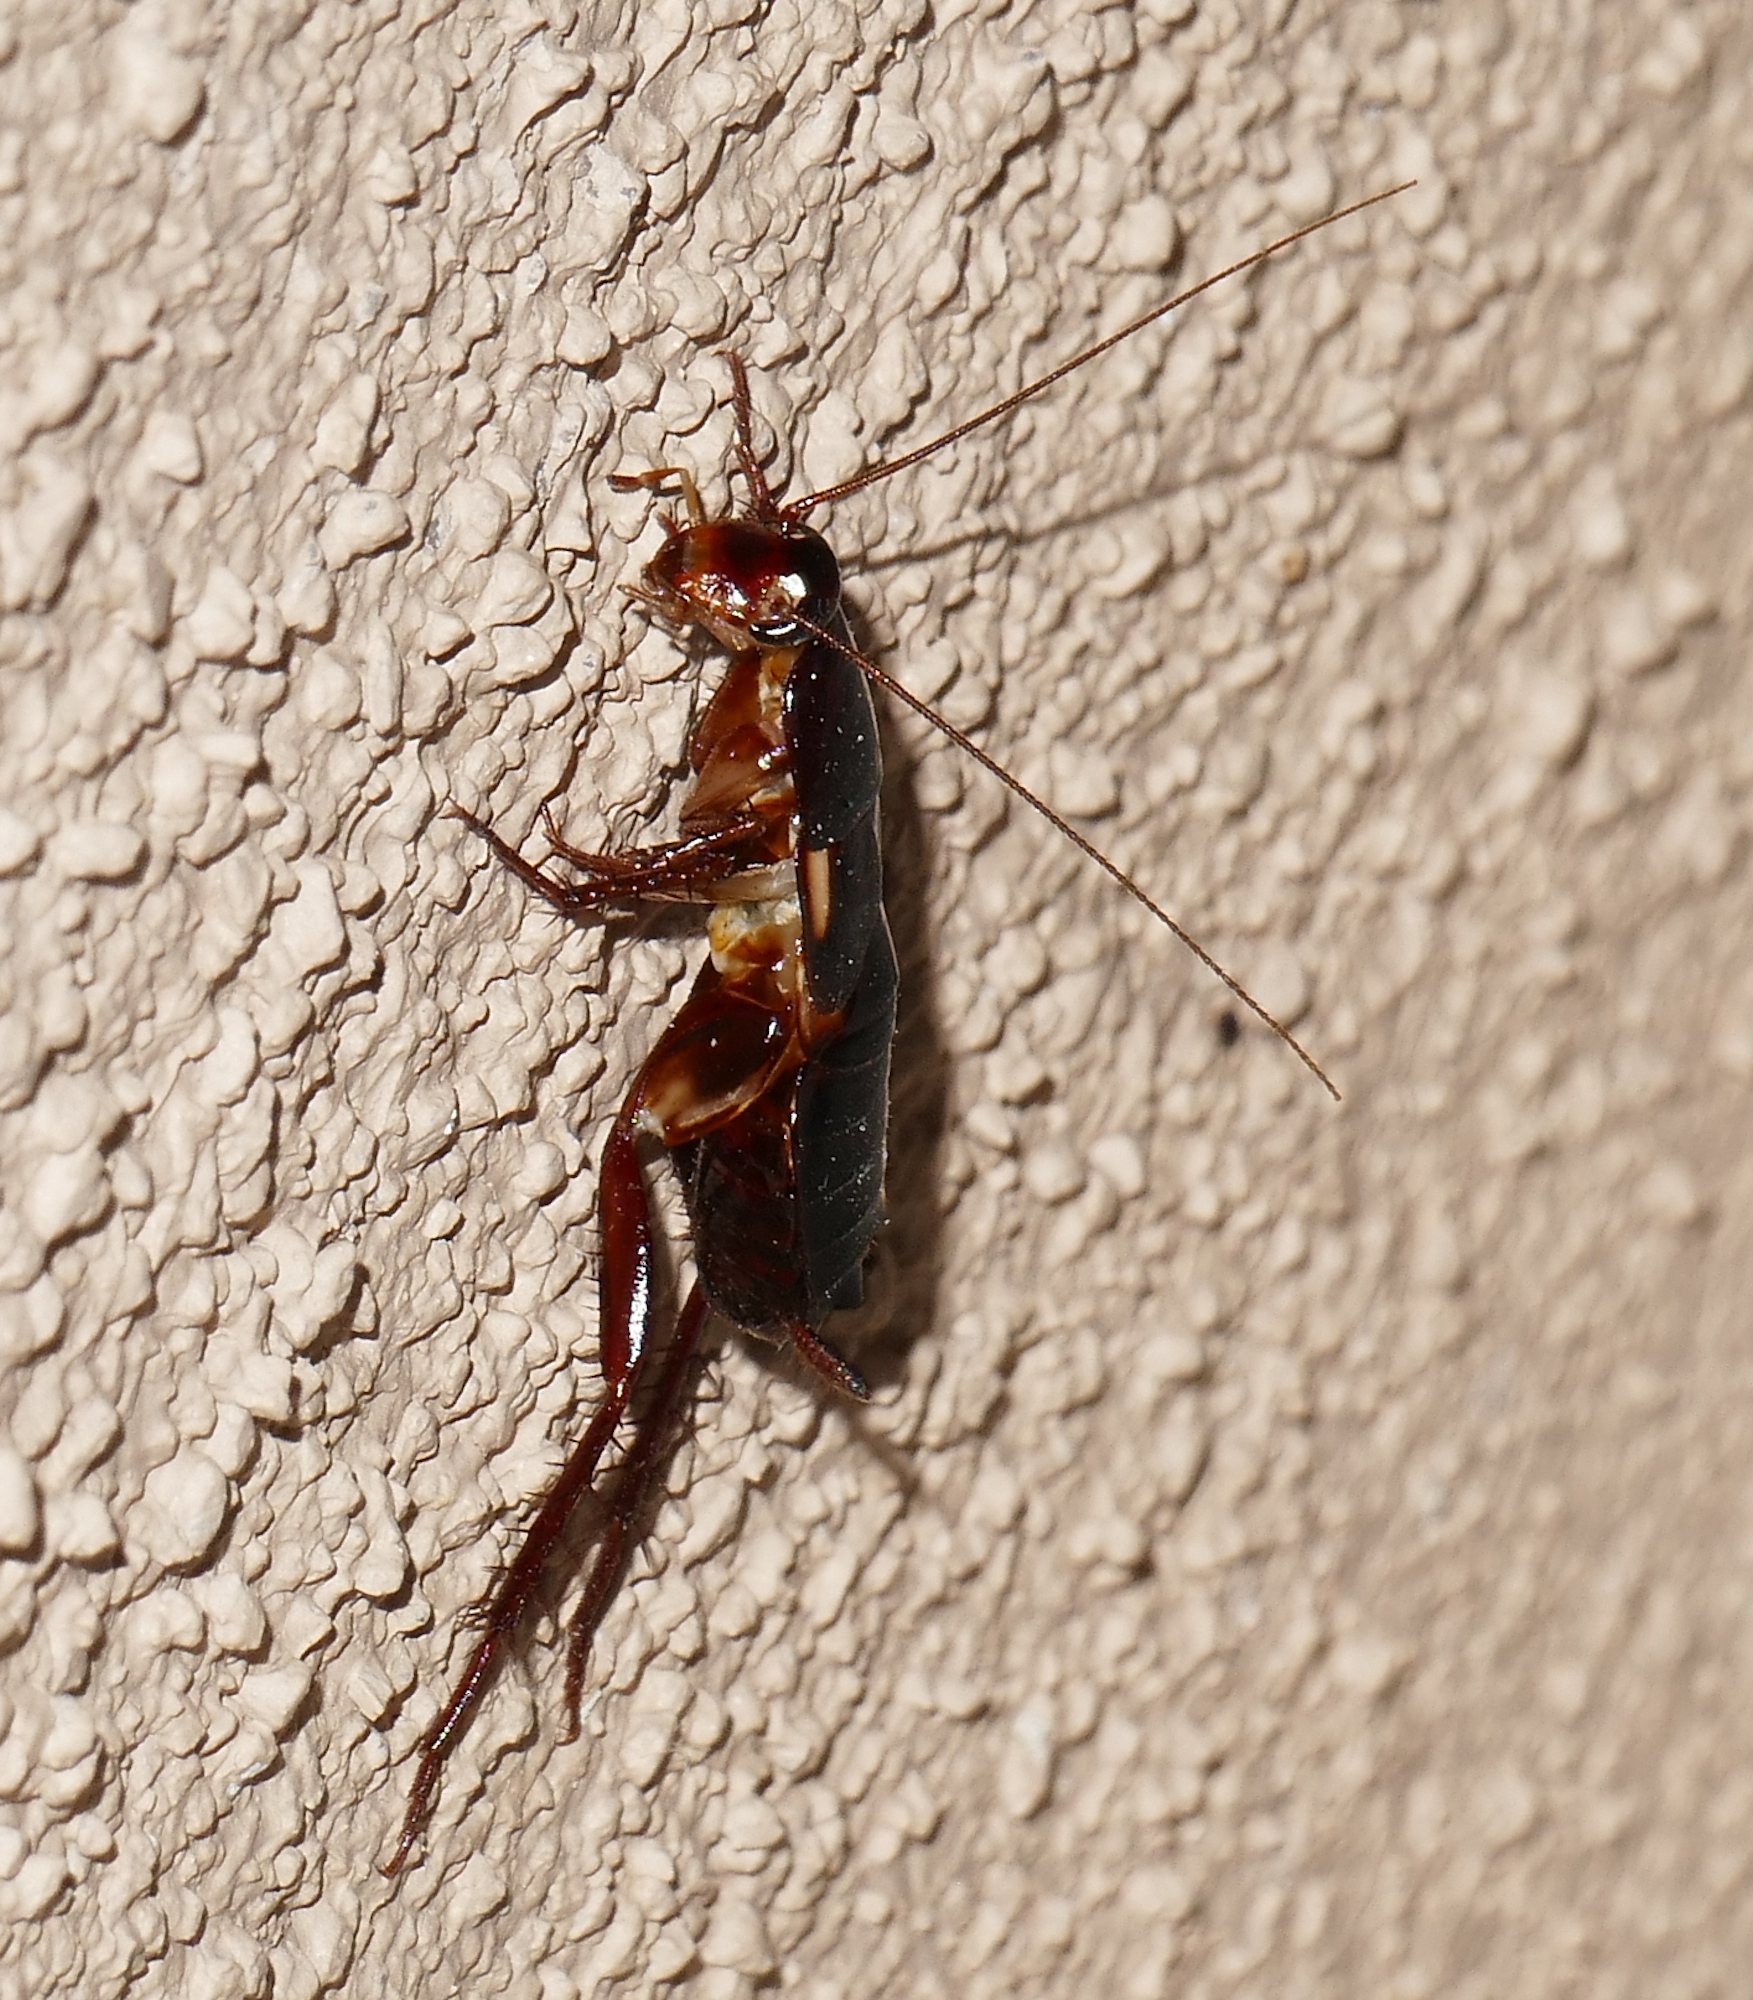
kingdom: Animalia
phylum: Arthropoda
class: Insecta
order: Blattodea
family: Blattidae
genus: Periplaneta
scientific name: Periplaneta lateralis
